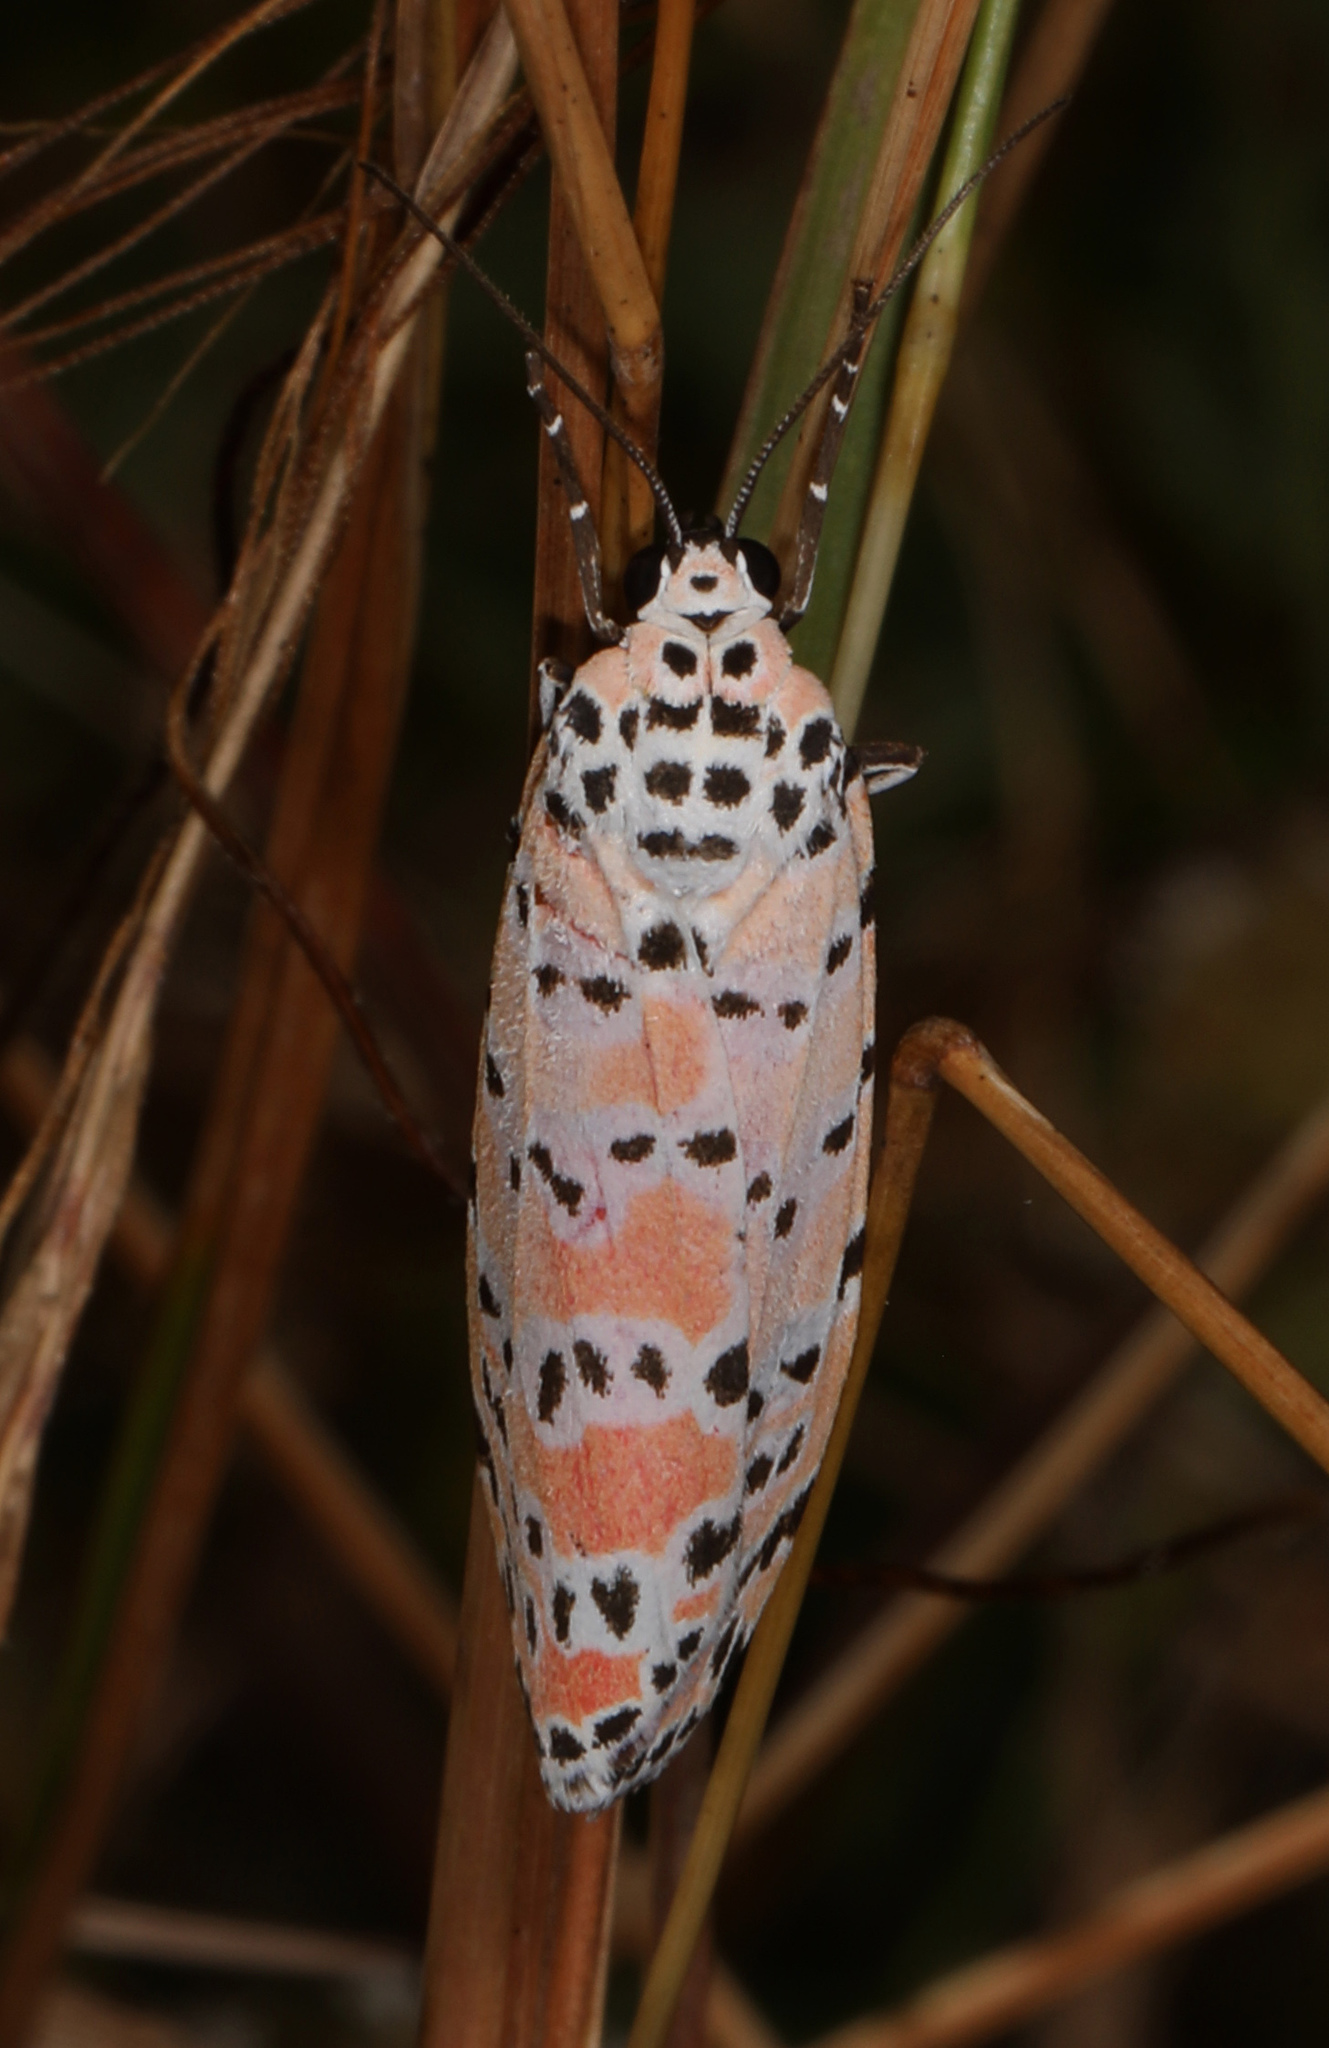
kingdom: Animalia
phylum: Arthropoda
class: Insecta
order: Lepidoptera
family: Erebidae
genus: Utetheisa
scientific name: Utetheisa ornatrix
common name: Beautiful utetheisa
